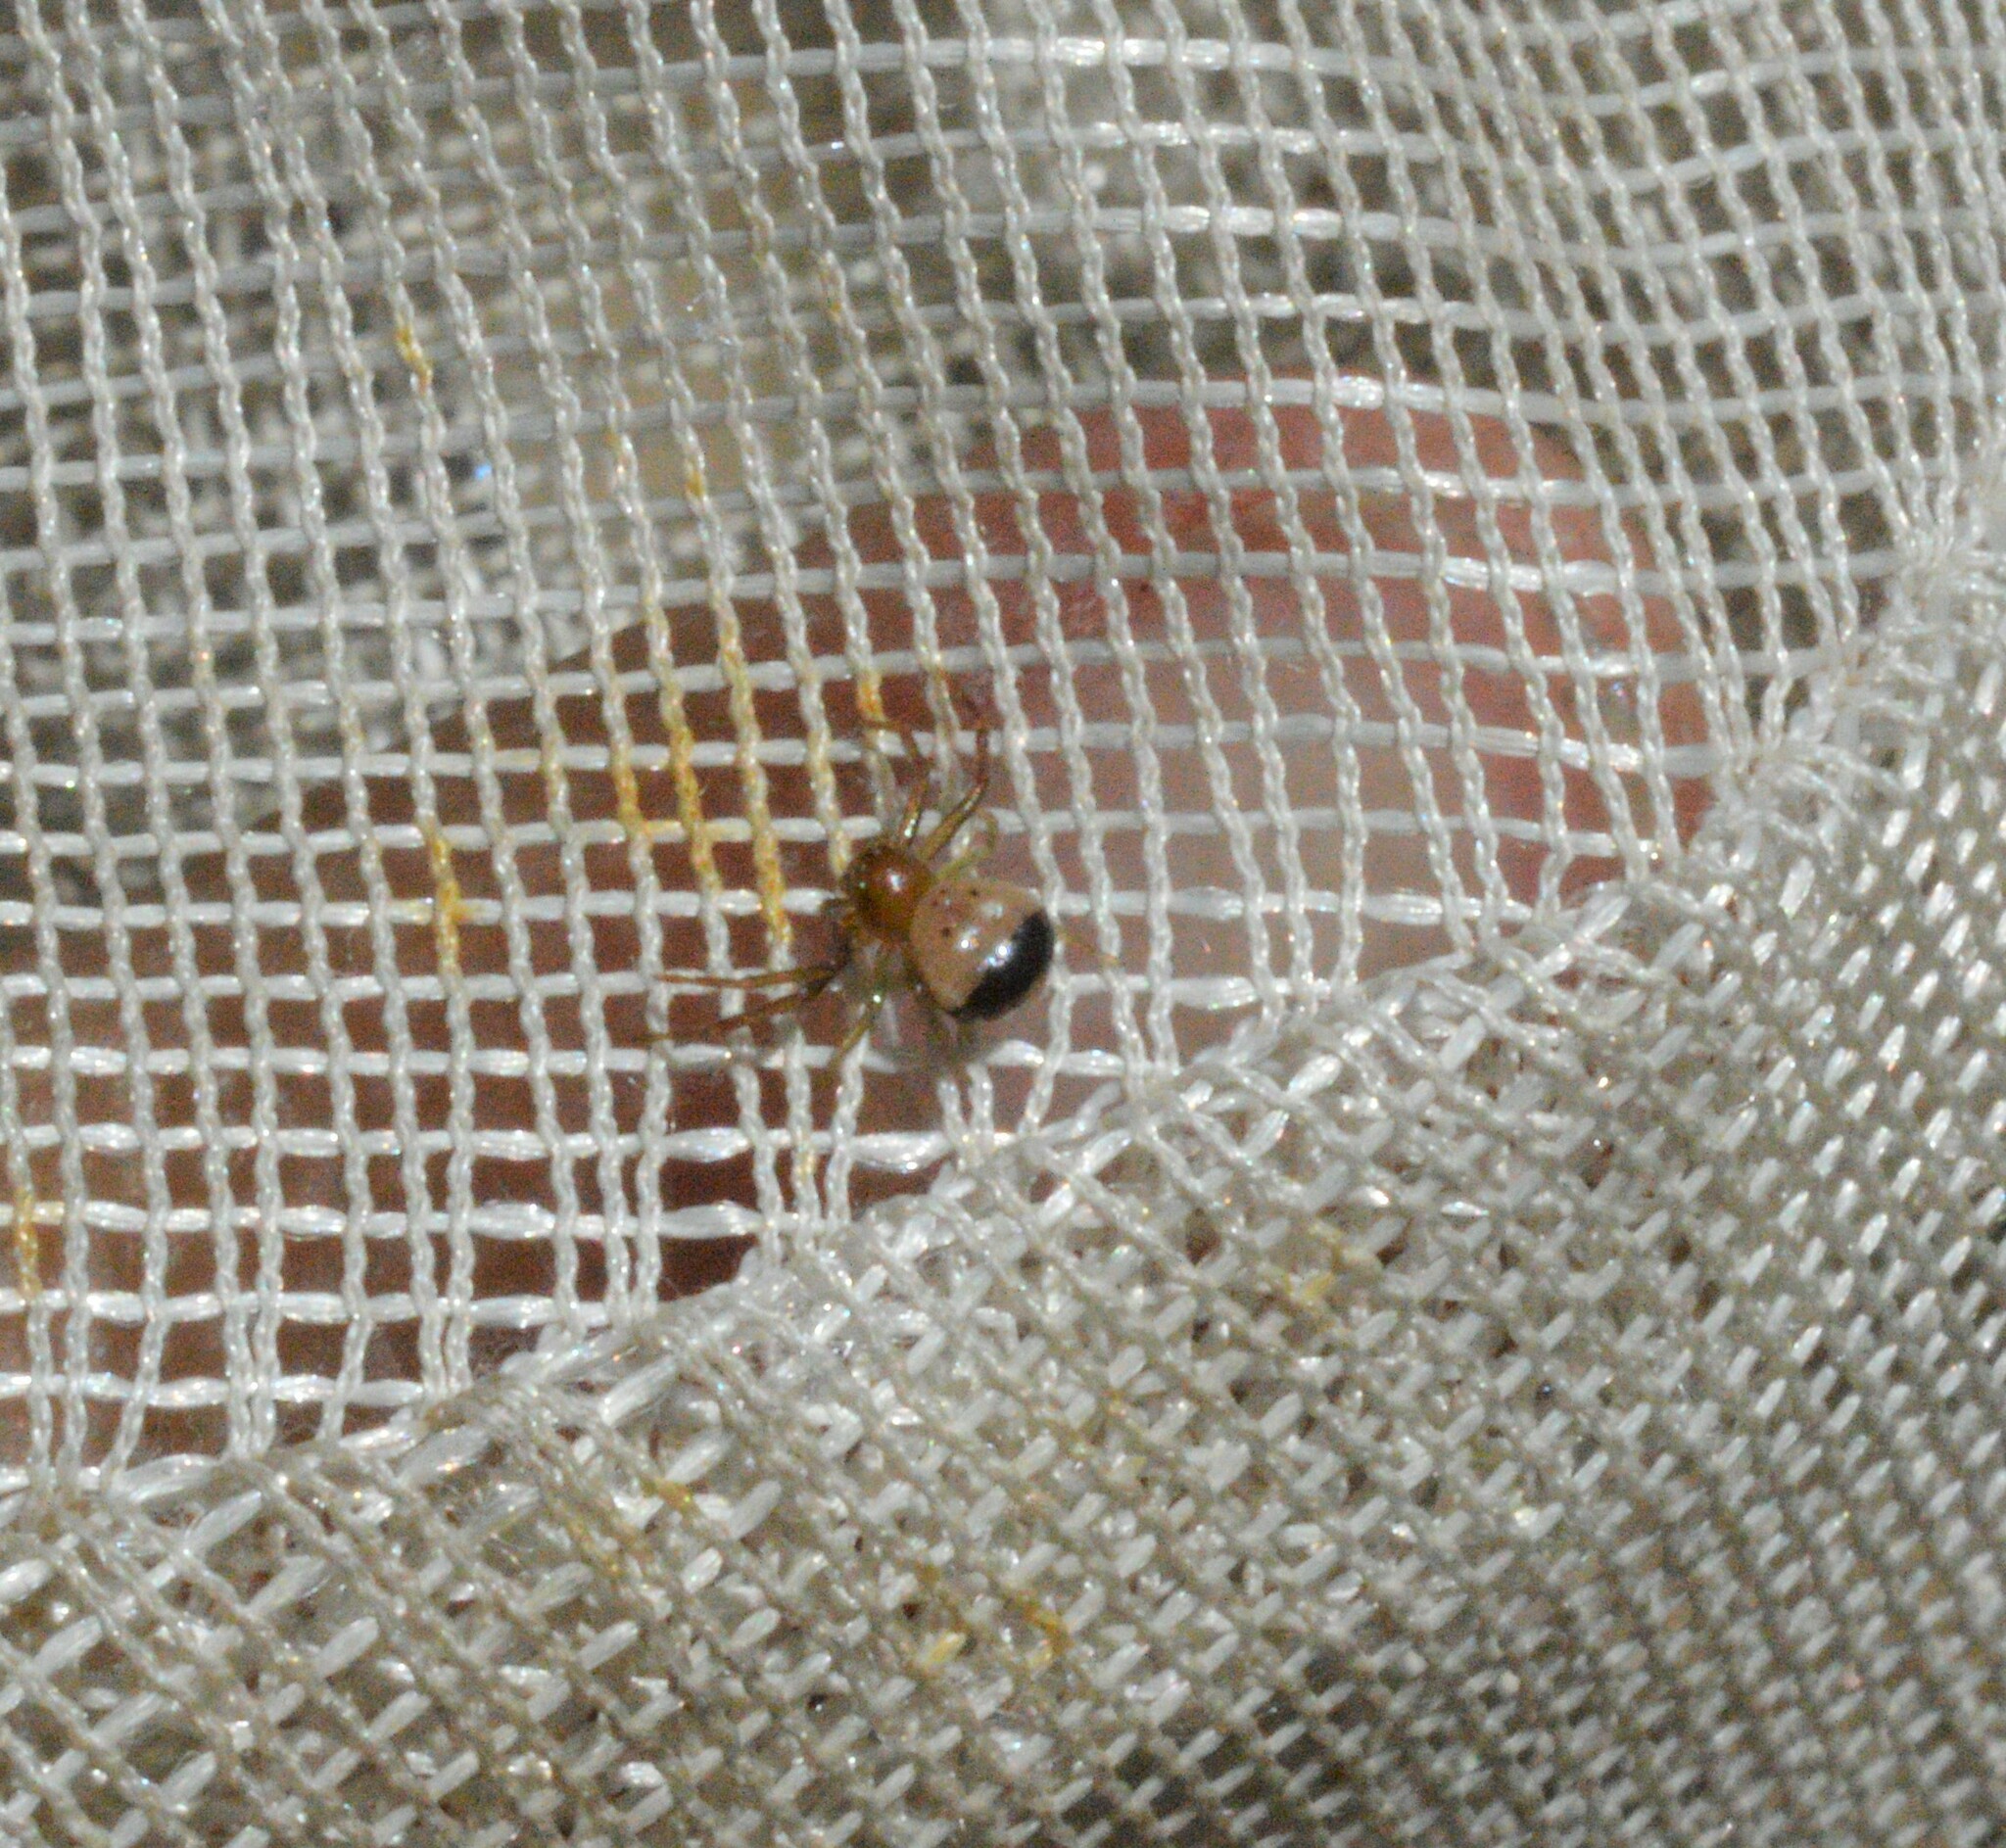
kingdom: Animalia
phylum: Arthropoda
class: Arachnida
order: Araneae
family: Thomisidae
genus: Synema
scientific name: Synema parvulum
